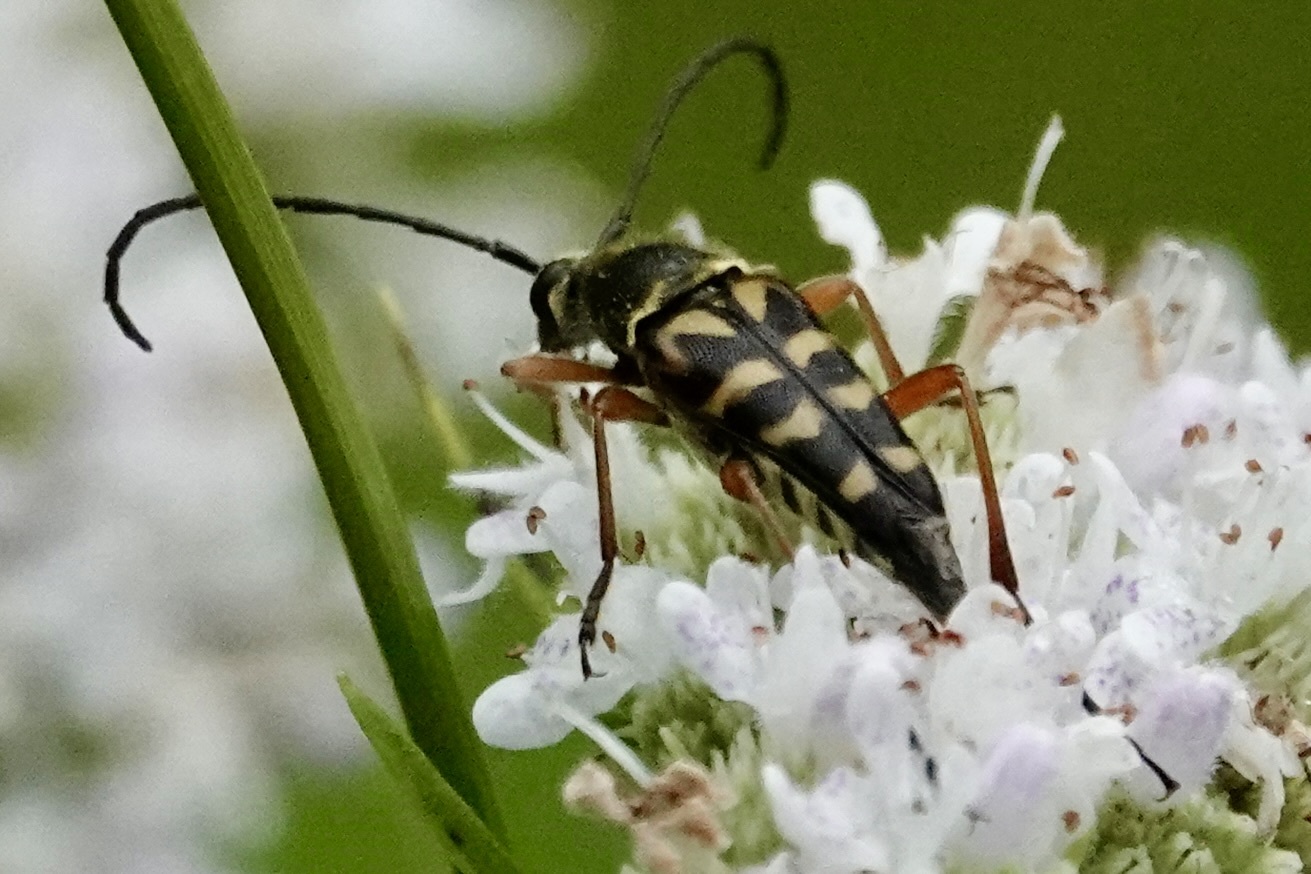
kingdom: Animalia
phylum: Arthropoda
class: Insecta
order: Coleoptera
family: Cerambycidae
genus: Typocerus
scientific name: Typocerus zebra
